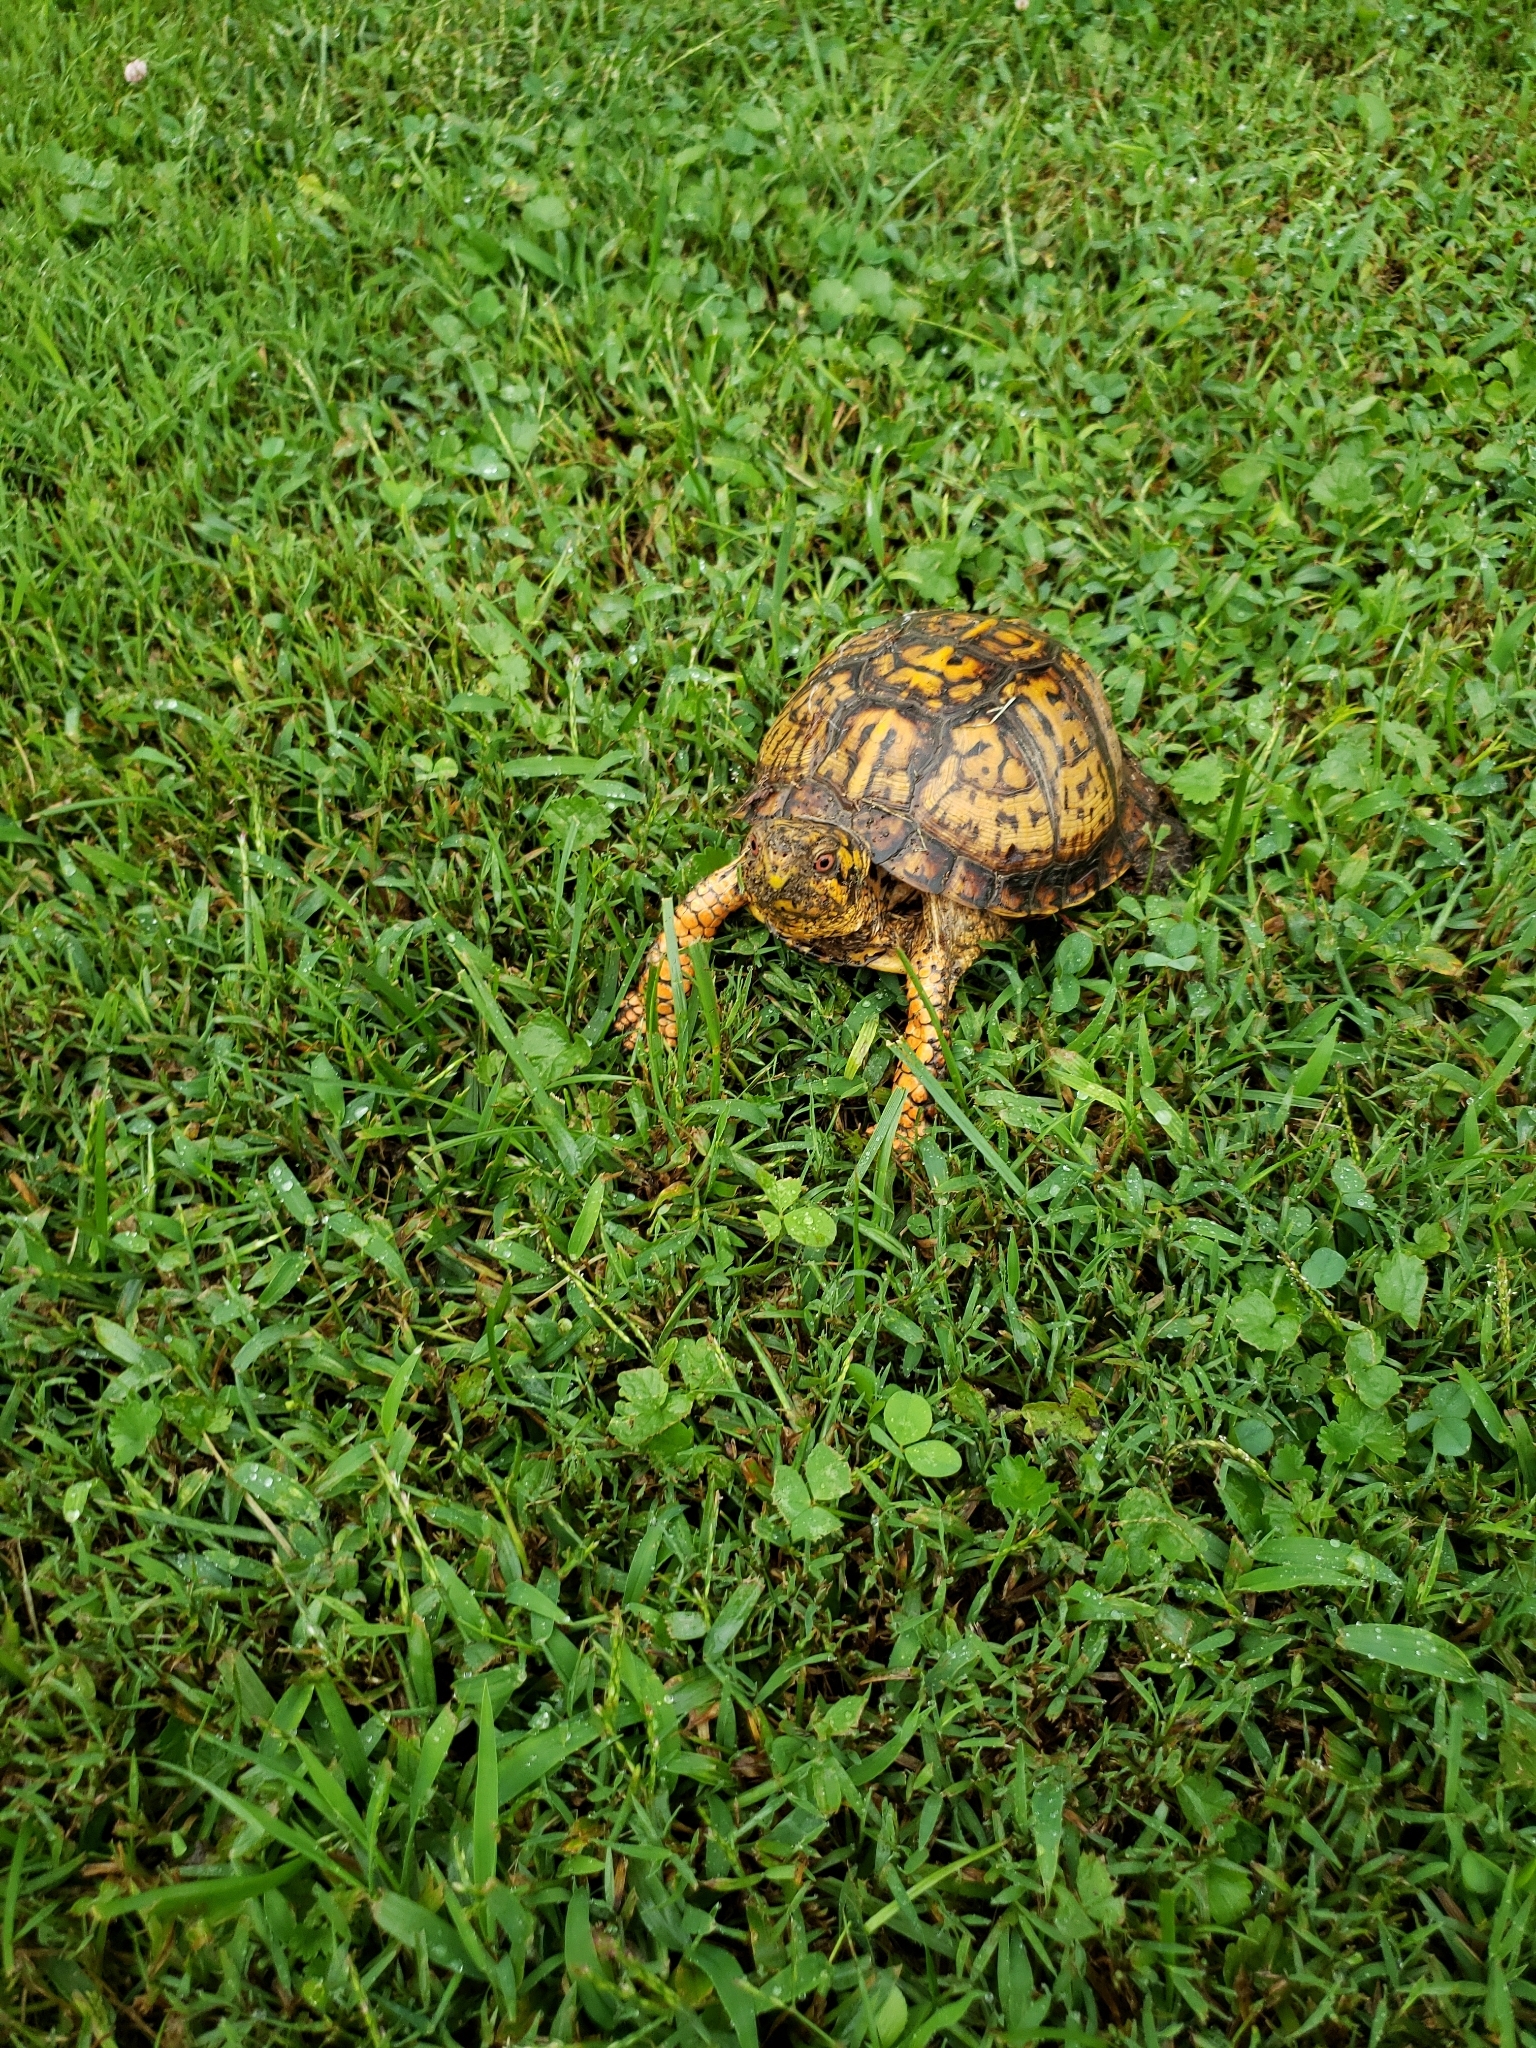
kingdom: Animalia
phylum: Chordata
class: Testudines
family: Emydidae
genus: Terrapene
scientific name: Terrapene carolina
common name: Common box turtle
